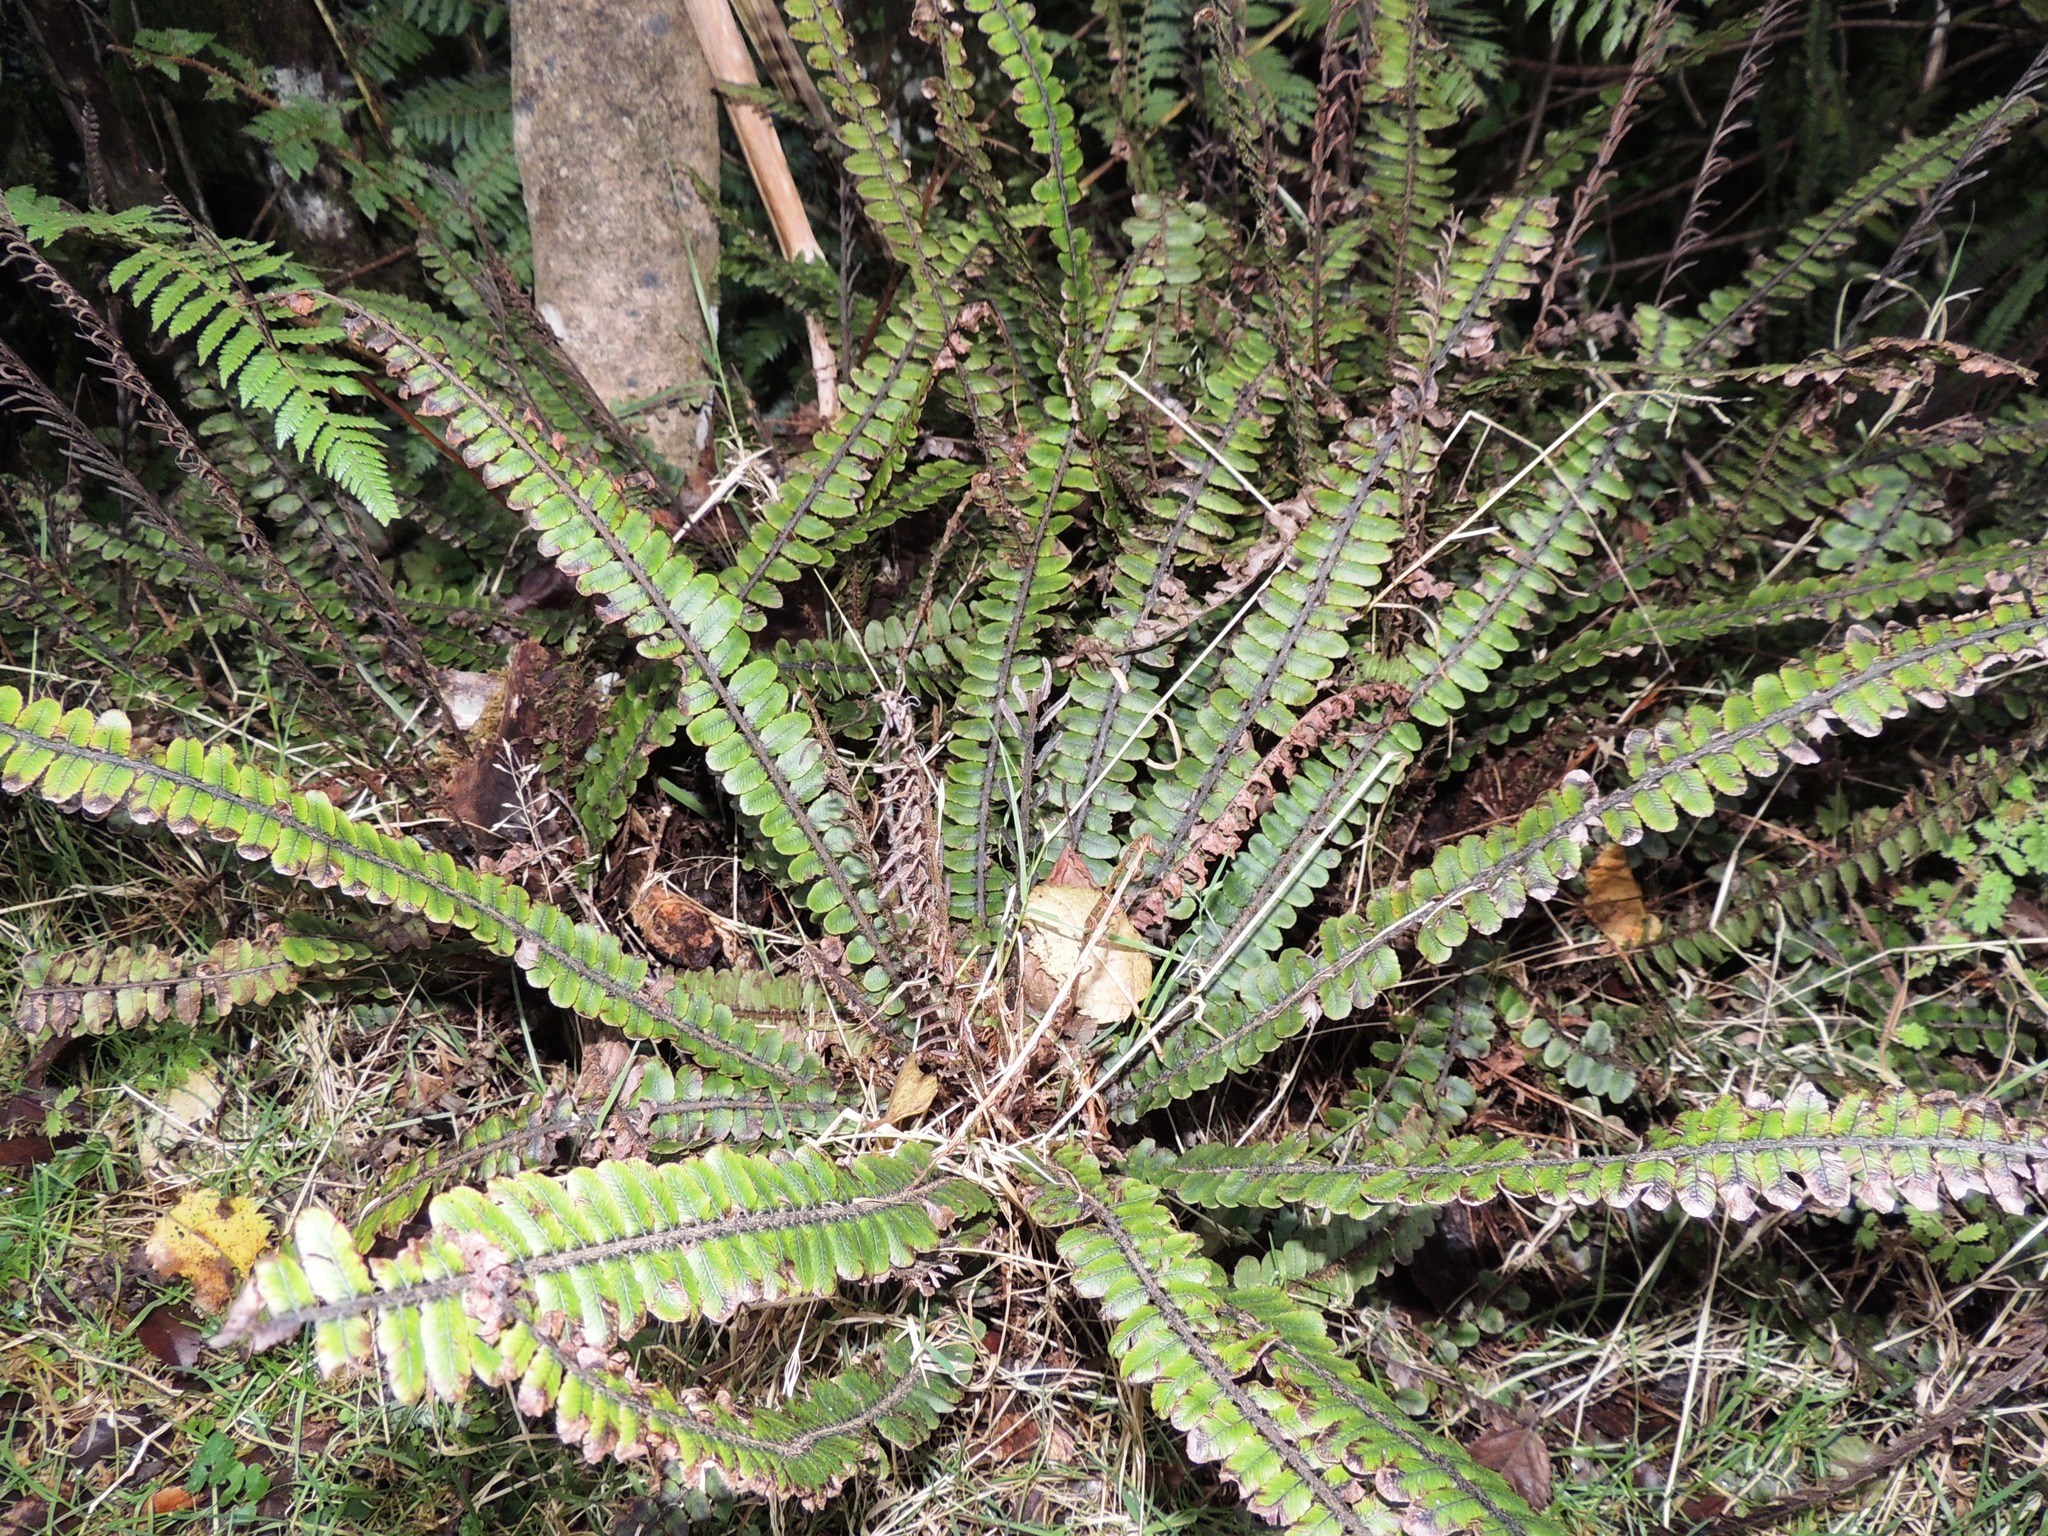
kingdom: Plantae
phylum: Tracheophyta
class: Polypodiopsida
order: Polypodiales
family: Blechnaceae
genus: Cranfillia
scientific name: Cranfillia fluviatilis
